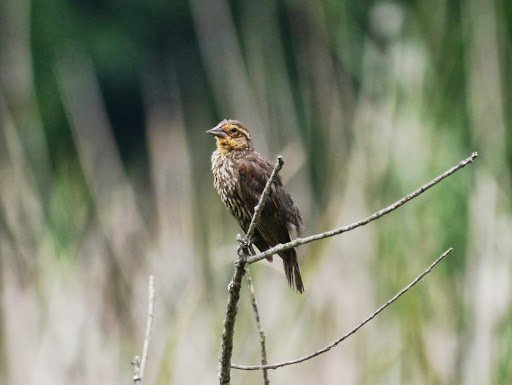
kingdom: Animalia
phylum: Chordata
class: Aves
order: Passeriformes
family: Icteridae
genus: Agelaius
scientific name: Agelaius phoeniceus
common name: Red-winged blackbird
